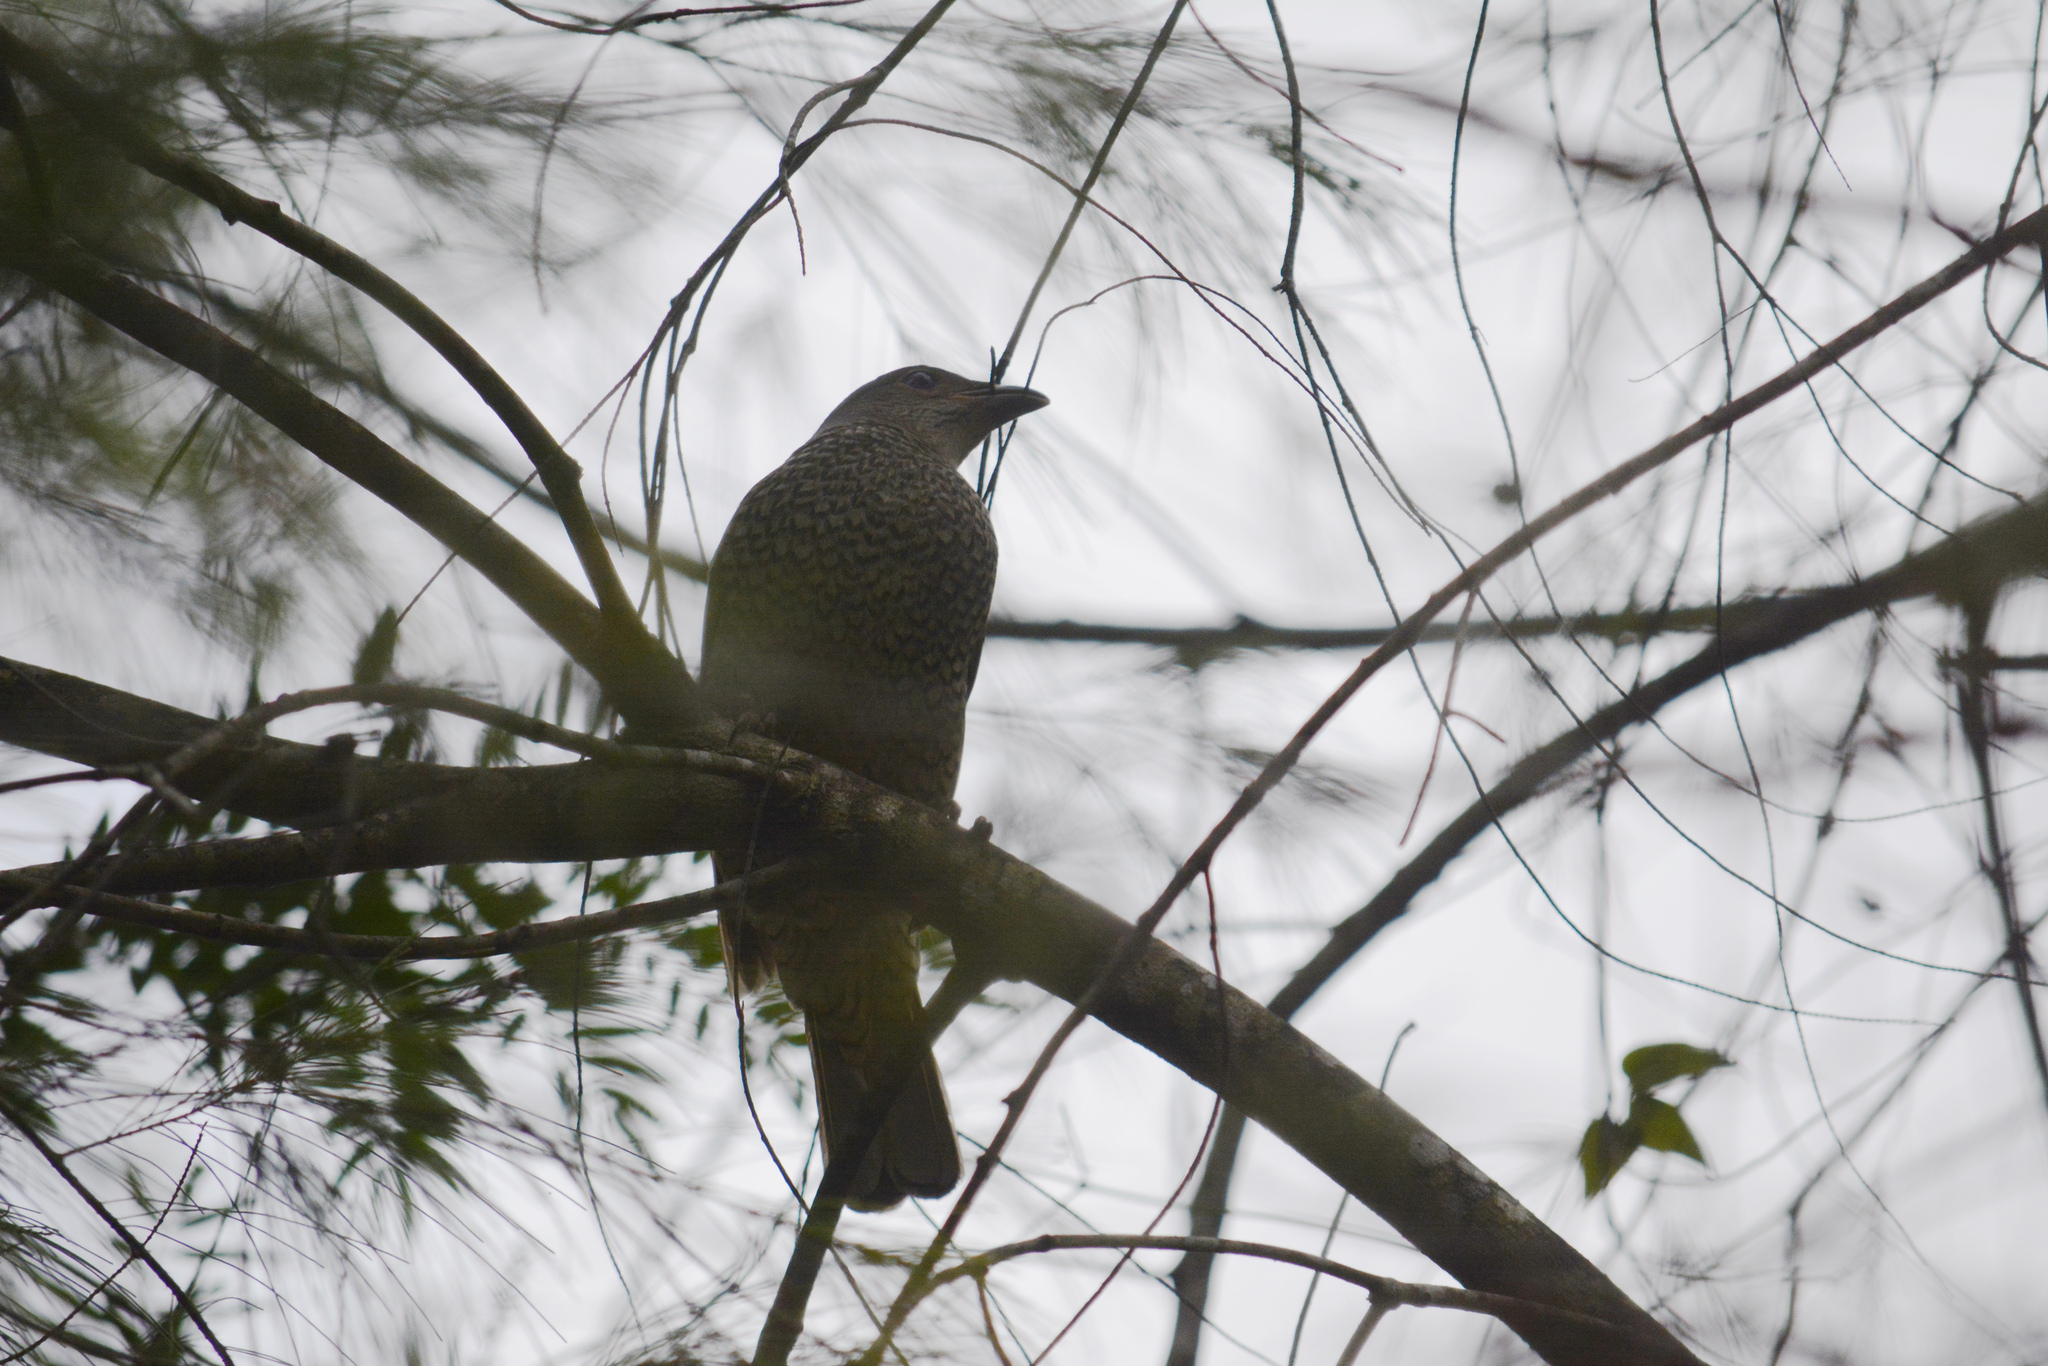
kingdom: Animalia
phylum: Chordata
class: Aves
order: Passeriformes
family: Ptilonorhynchidae
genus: Ptilonorhynchus
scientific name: Ptilonorhynchus violaceus
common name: Satin bowerbird
